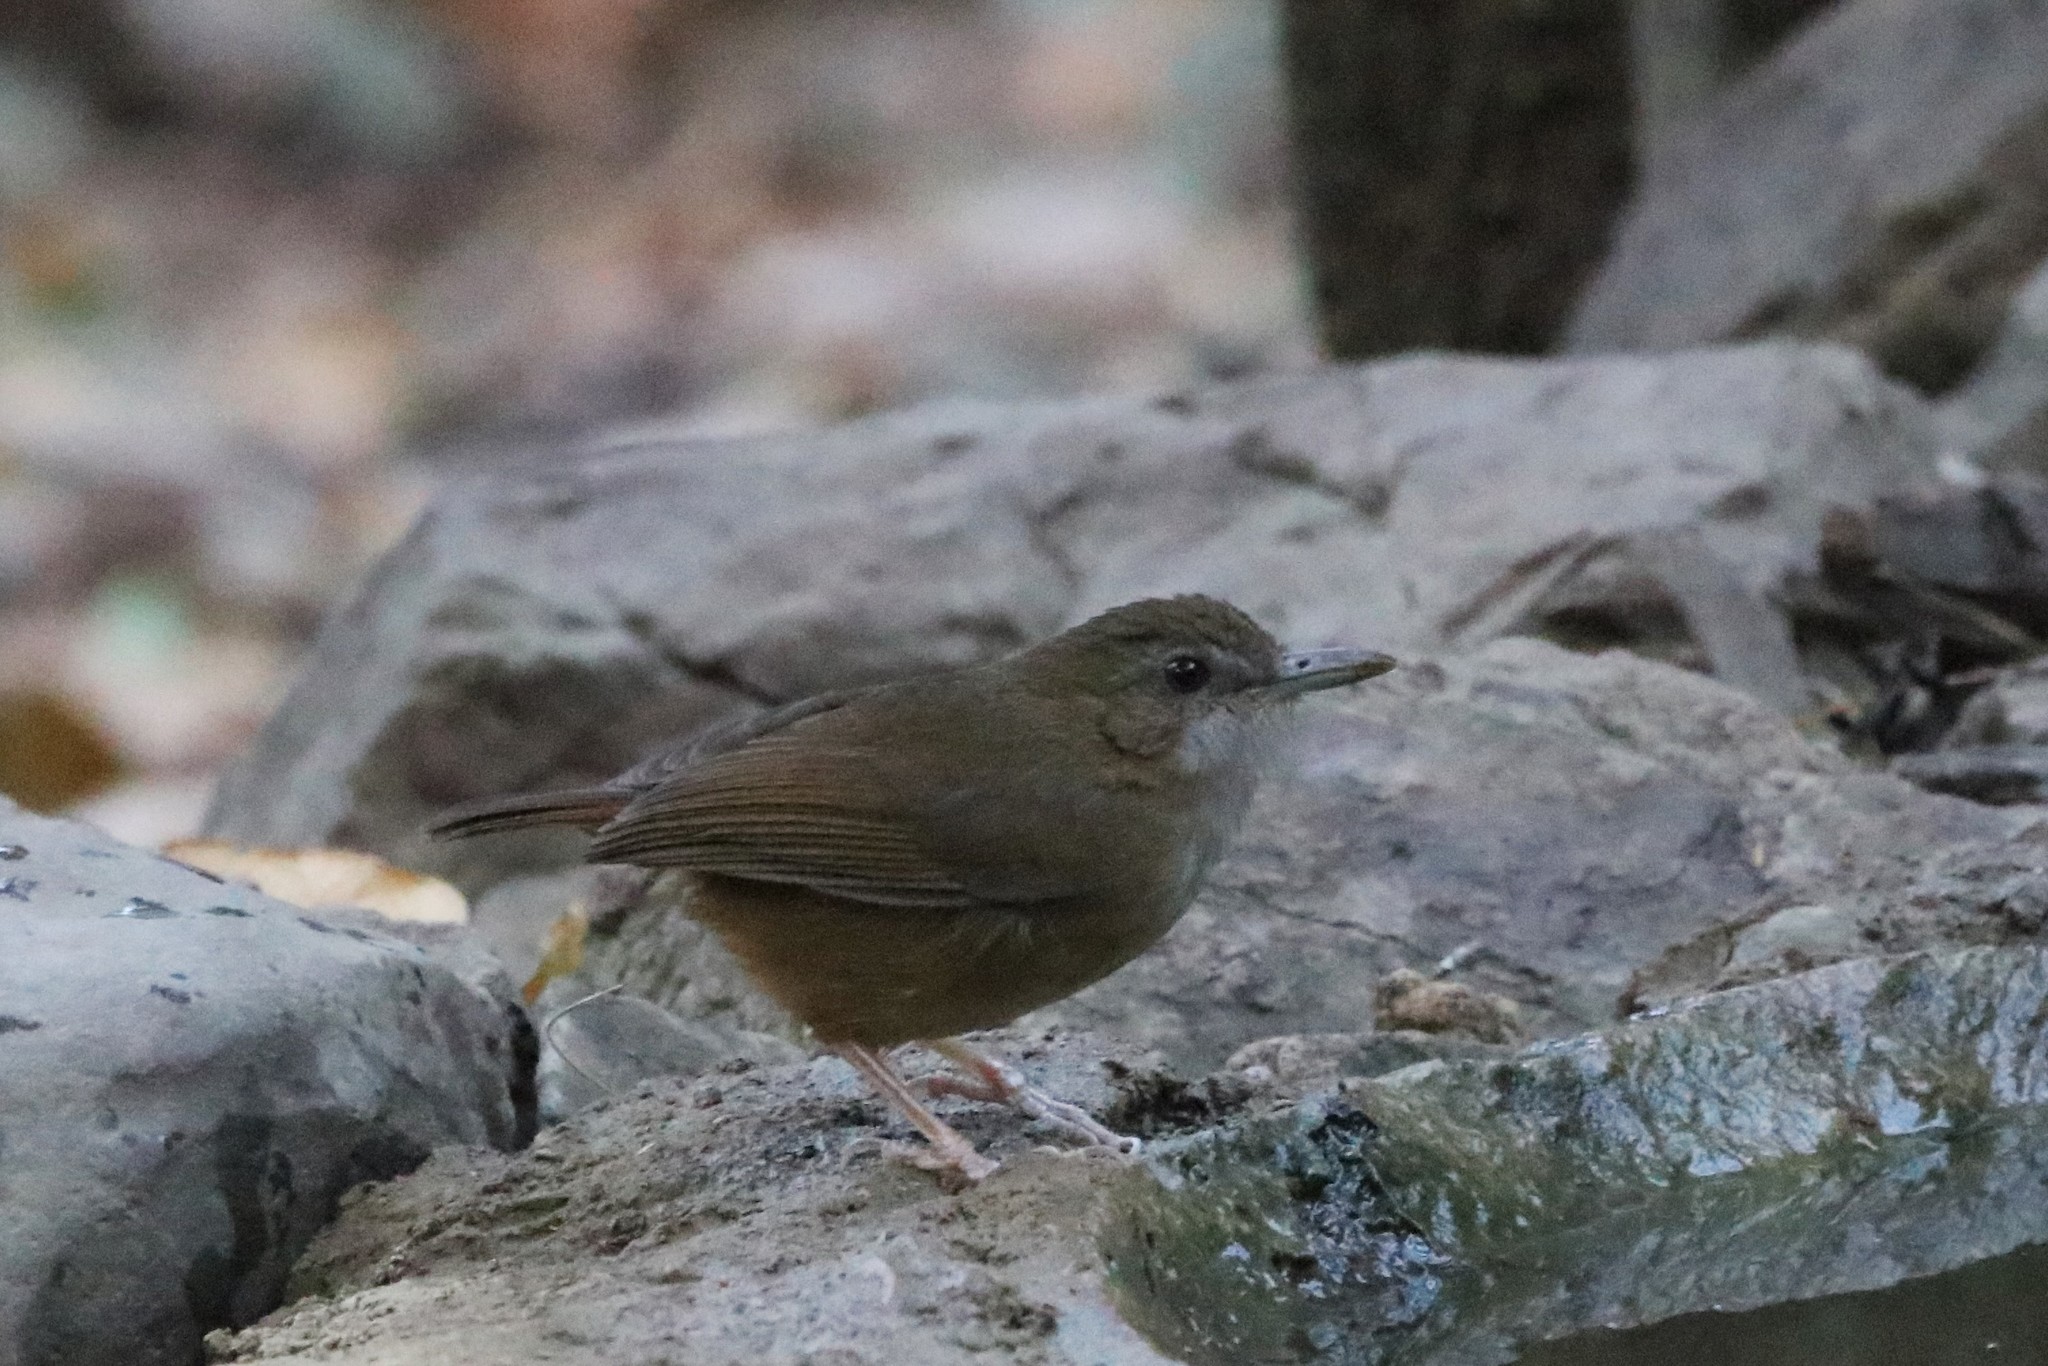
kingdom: Animalia
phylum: Chordata
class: Aves
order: Passeriformes
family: Pellorneidae
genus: Malacocincla
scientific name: Malacocincla abbotti
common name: Abbott's babbler
